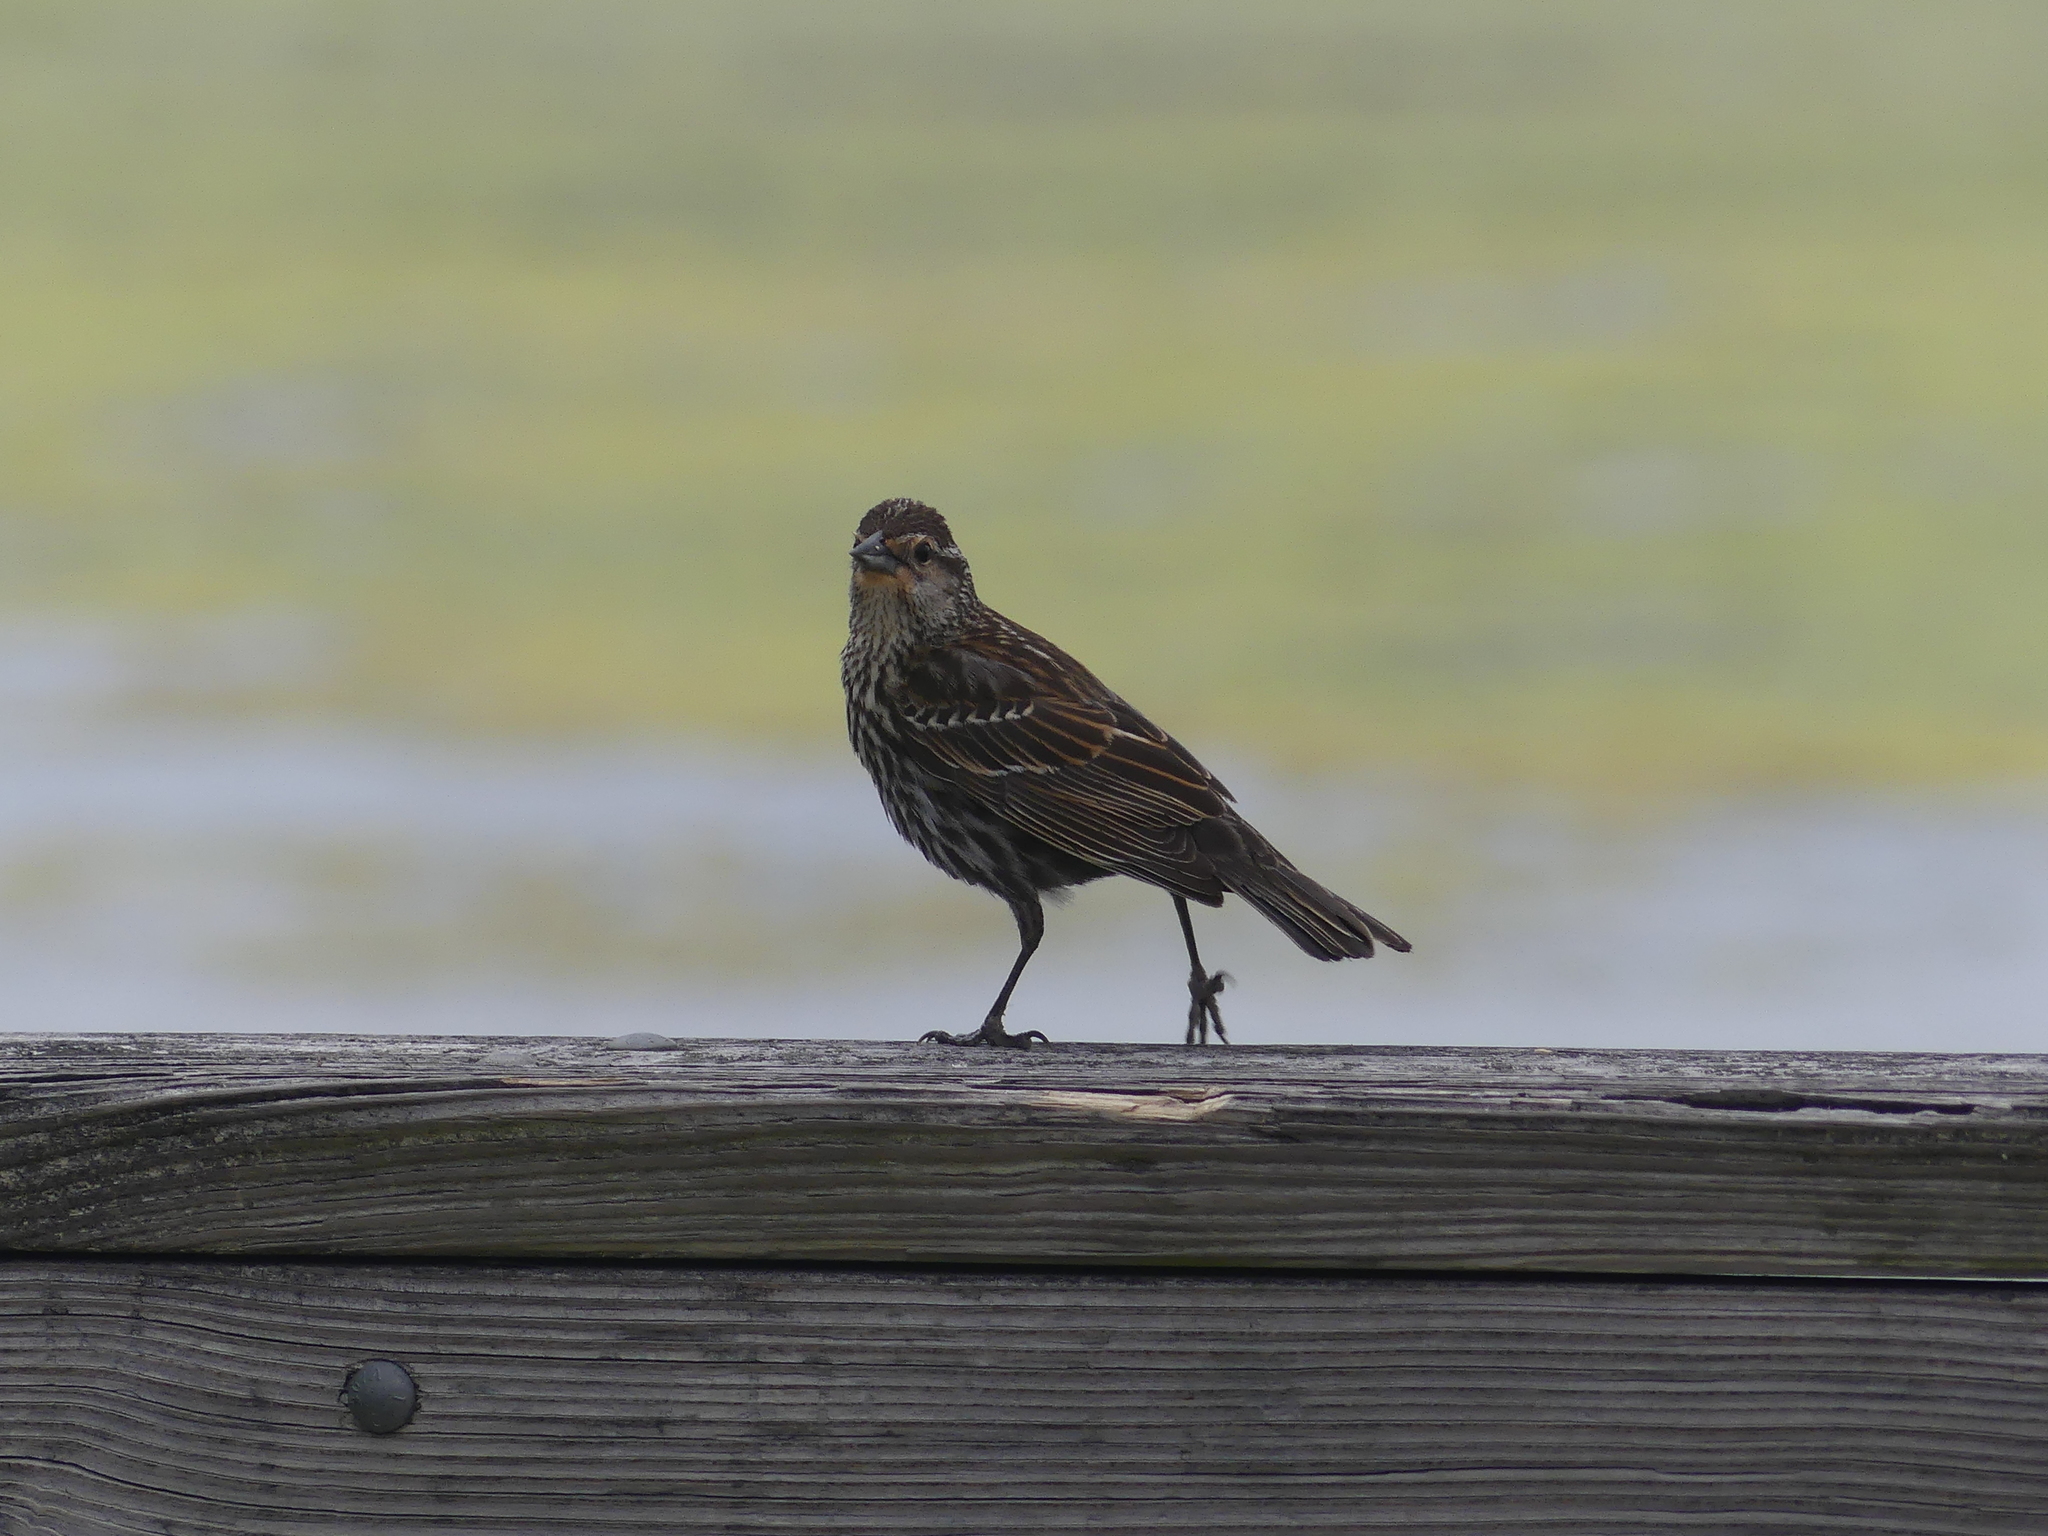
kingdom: Animalia
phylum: Chordata
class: Aves
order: Passeriformes
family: Icteridae
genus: Agelaius
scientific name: Agelaius phoeniceus
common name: Red-winged blackbird
